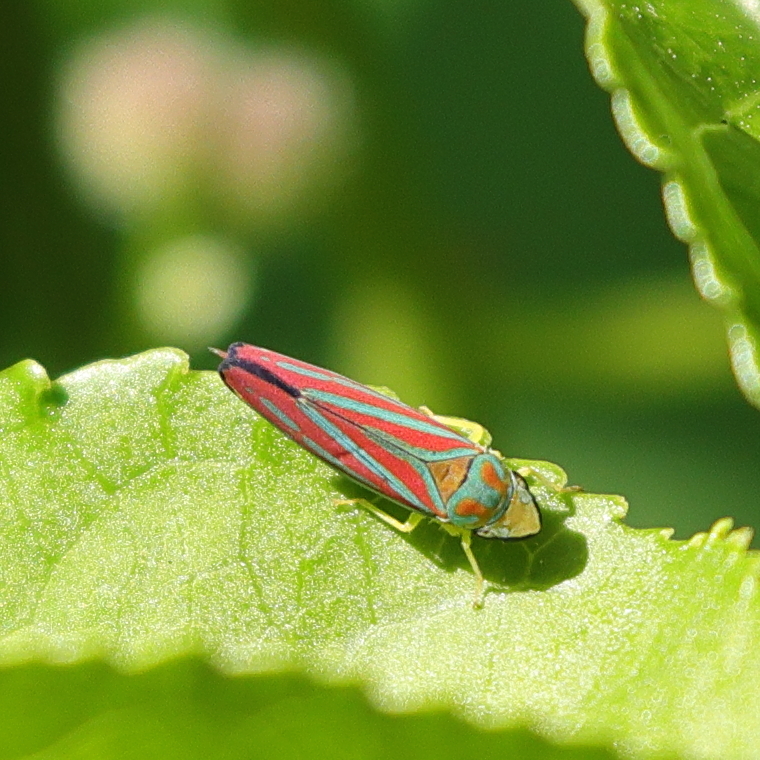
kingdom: Animalia
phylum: Arthropoda
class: Insecta
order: Hemiptera
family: Cicadellidae
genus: Graphocephala
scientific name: Graphocephala coccinea
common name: Candy-striped leafhopper
